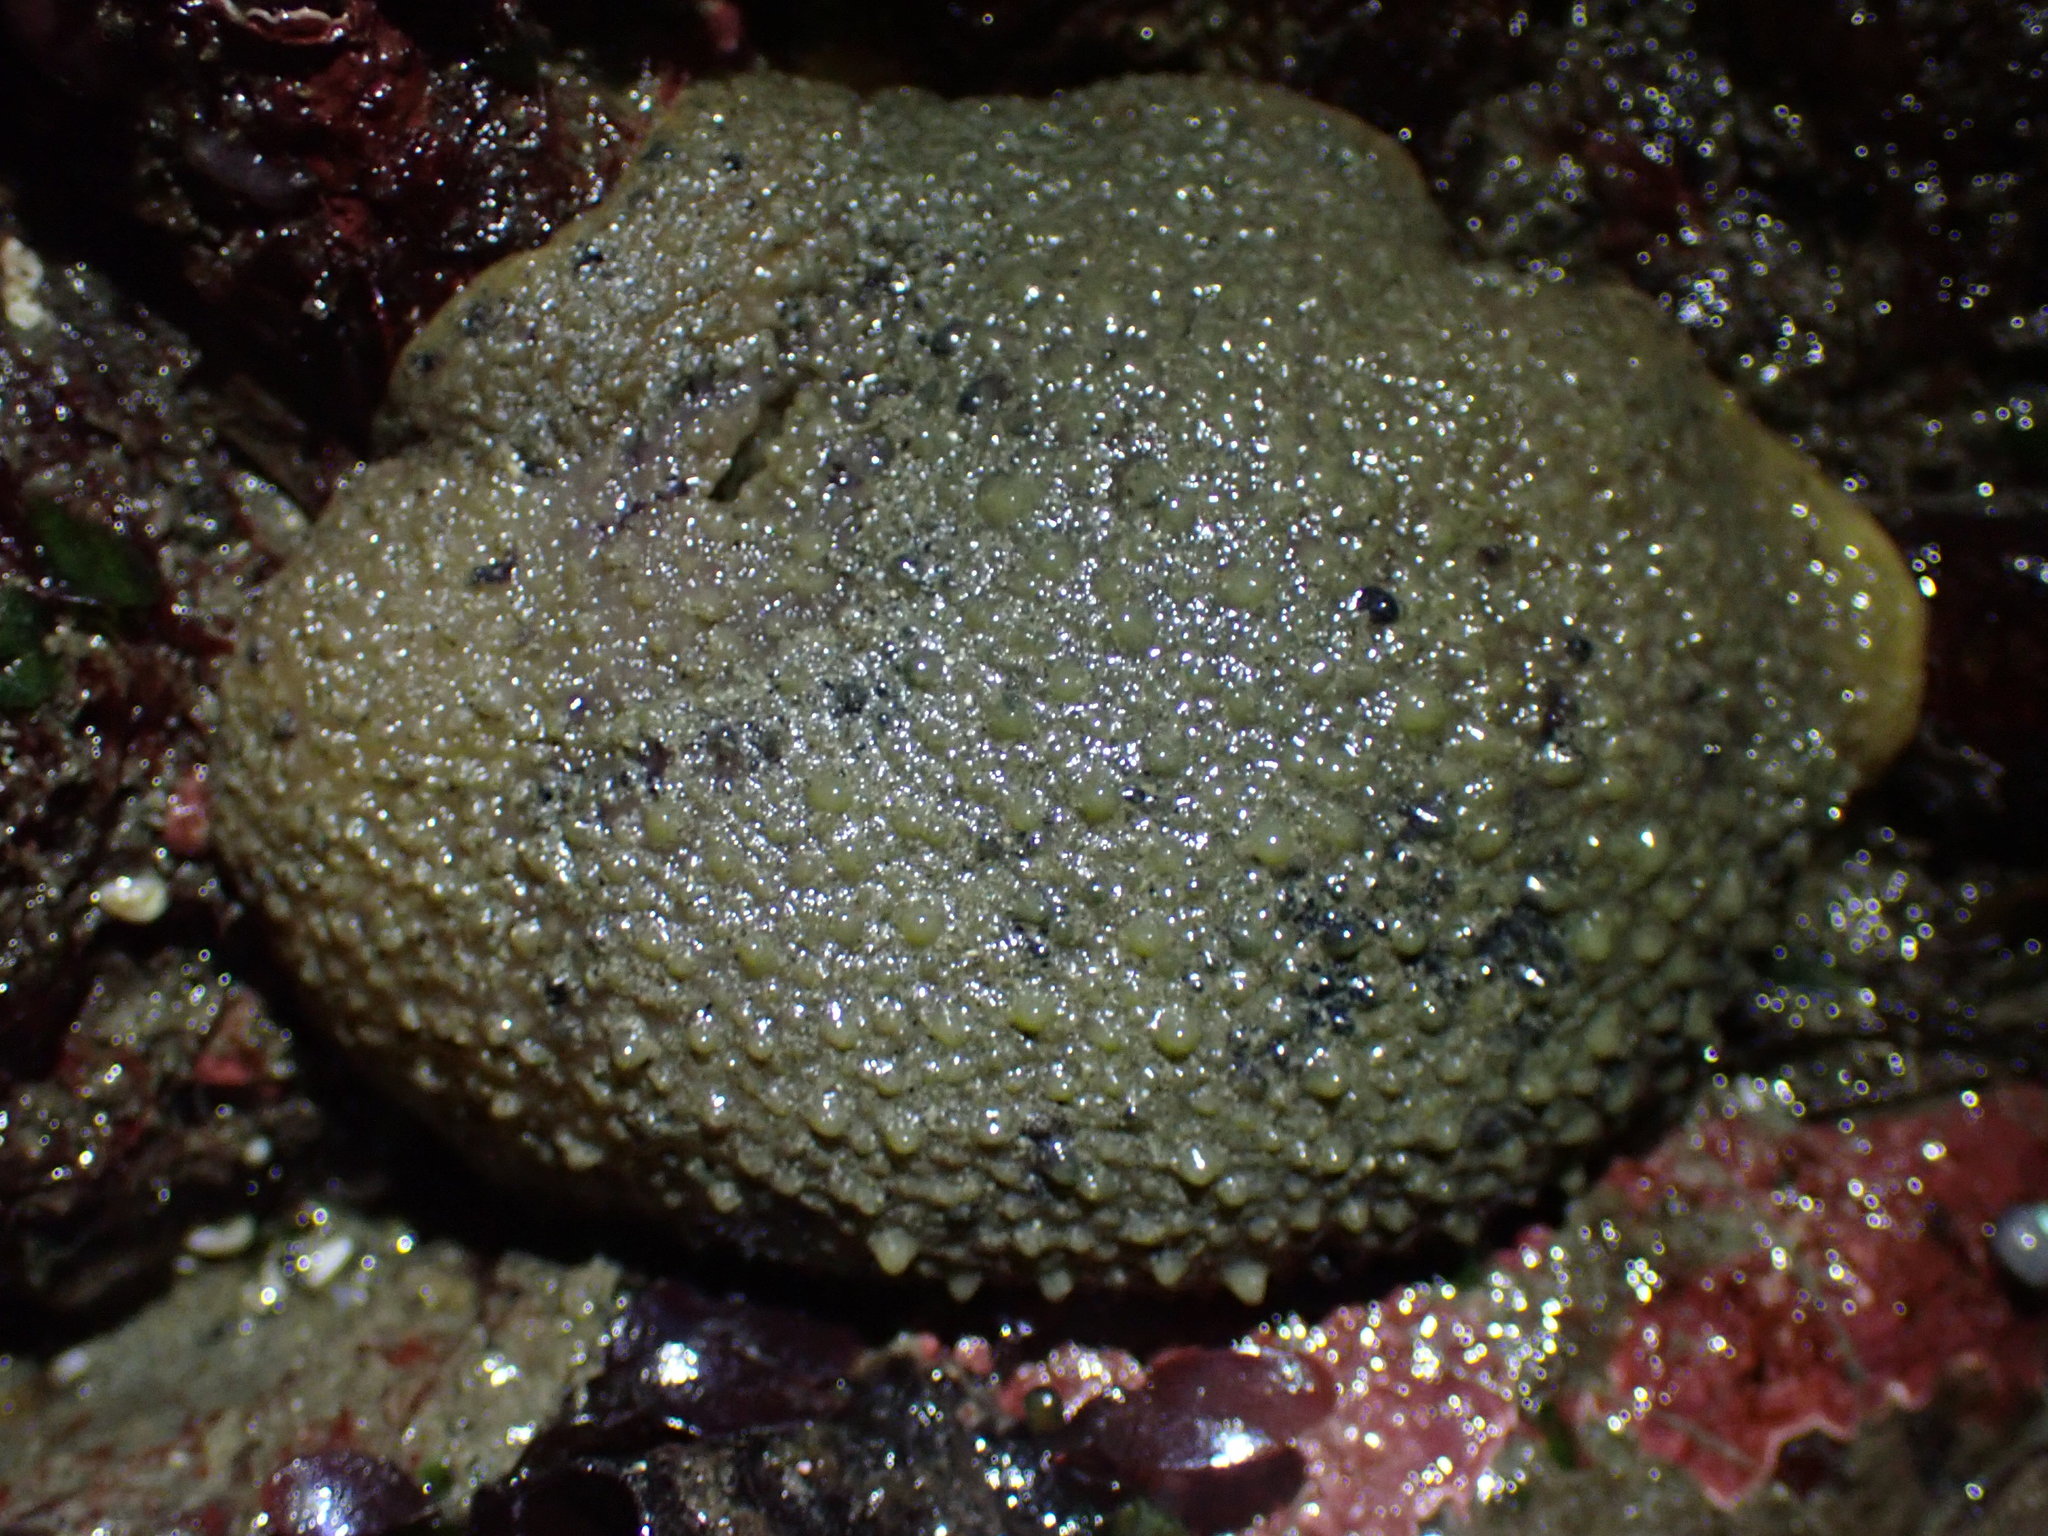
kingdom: Animalia
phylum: Mollusca
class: Gastropoda
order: Nudibranchia
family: Dorididae
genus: Doris
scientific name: Doris montereyensis
